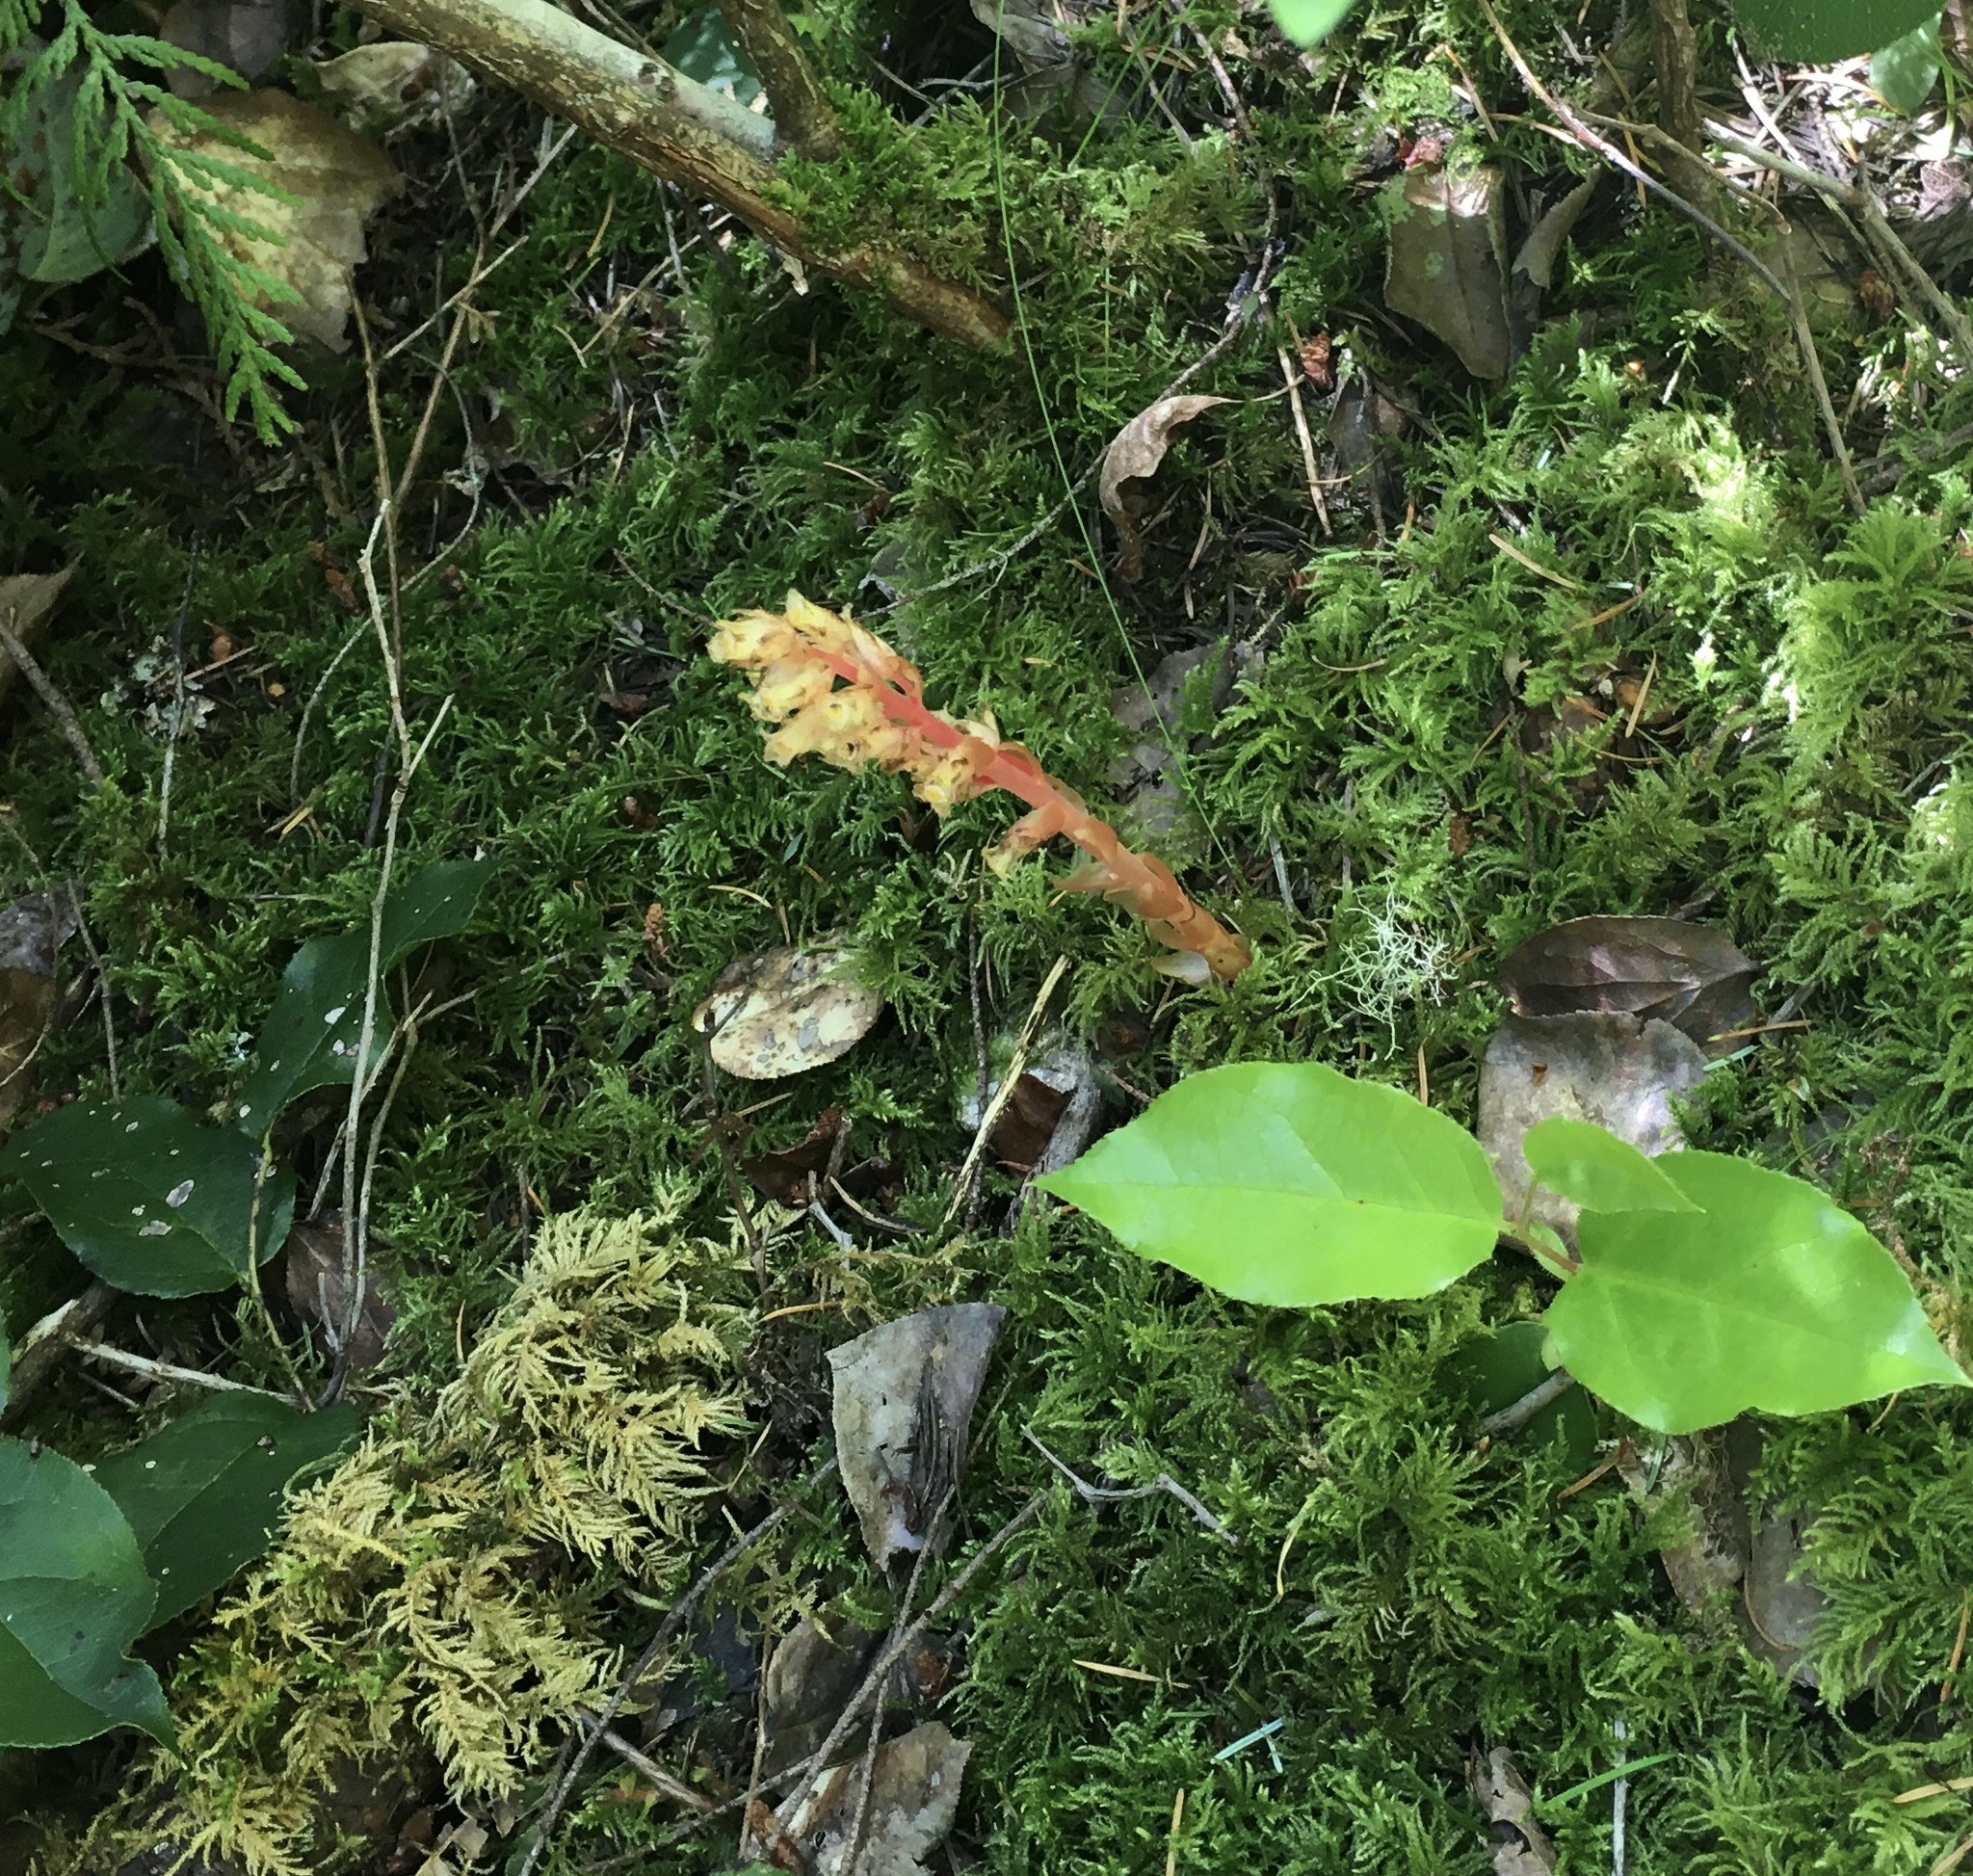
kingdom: Plantae
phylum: Tracheophyta
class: Magnoliopsida
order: Ericales
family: Ericaceae
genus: Hypopitys
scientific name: Hypopitys monotropa
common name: Yellow bird's-nest
